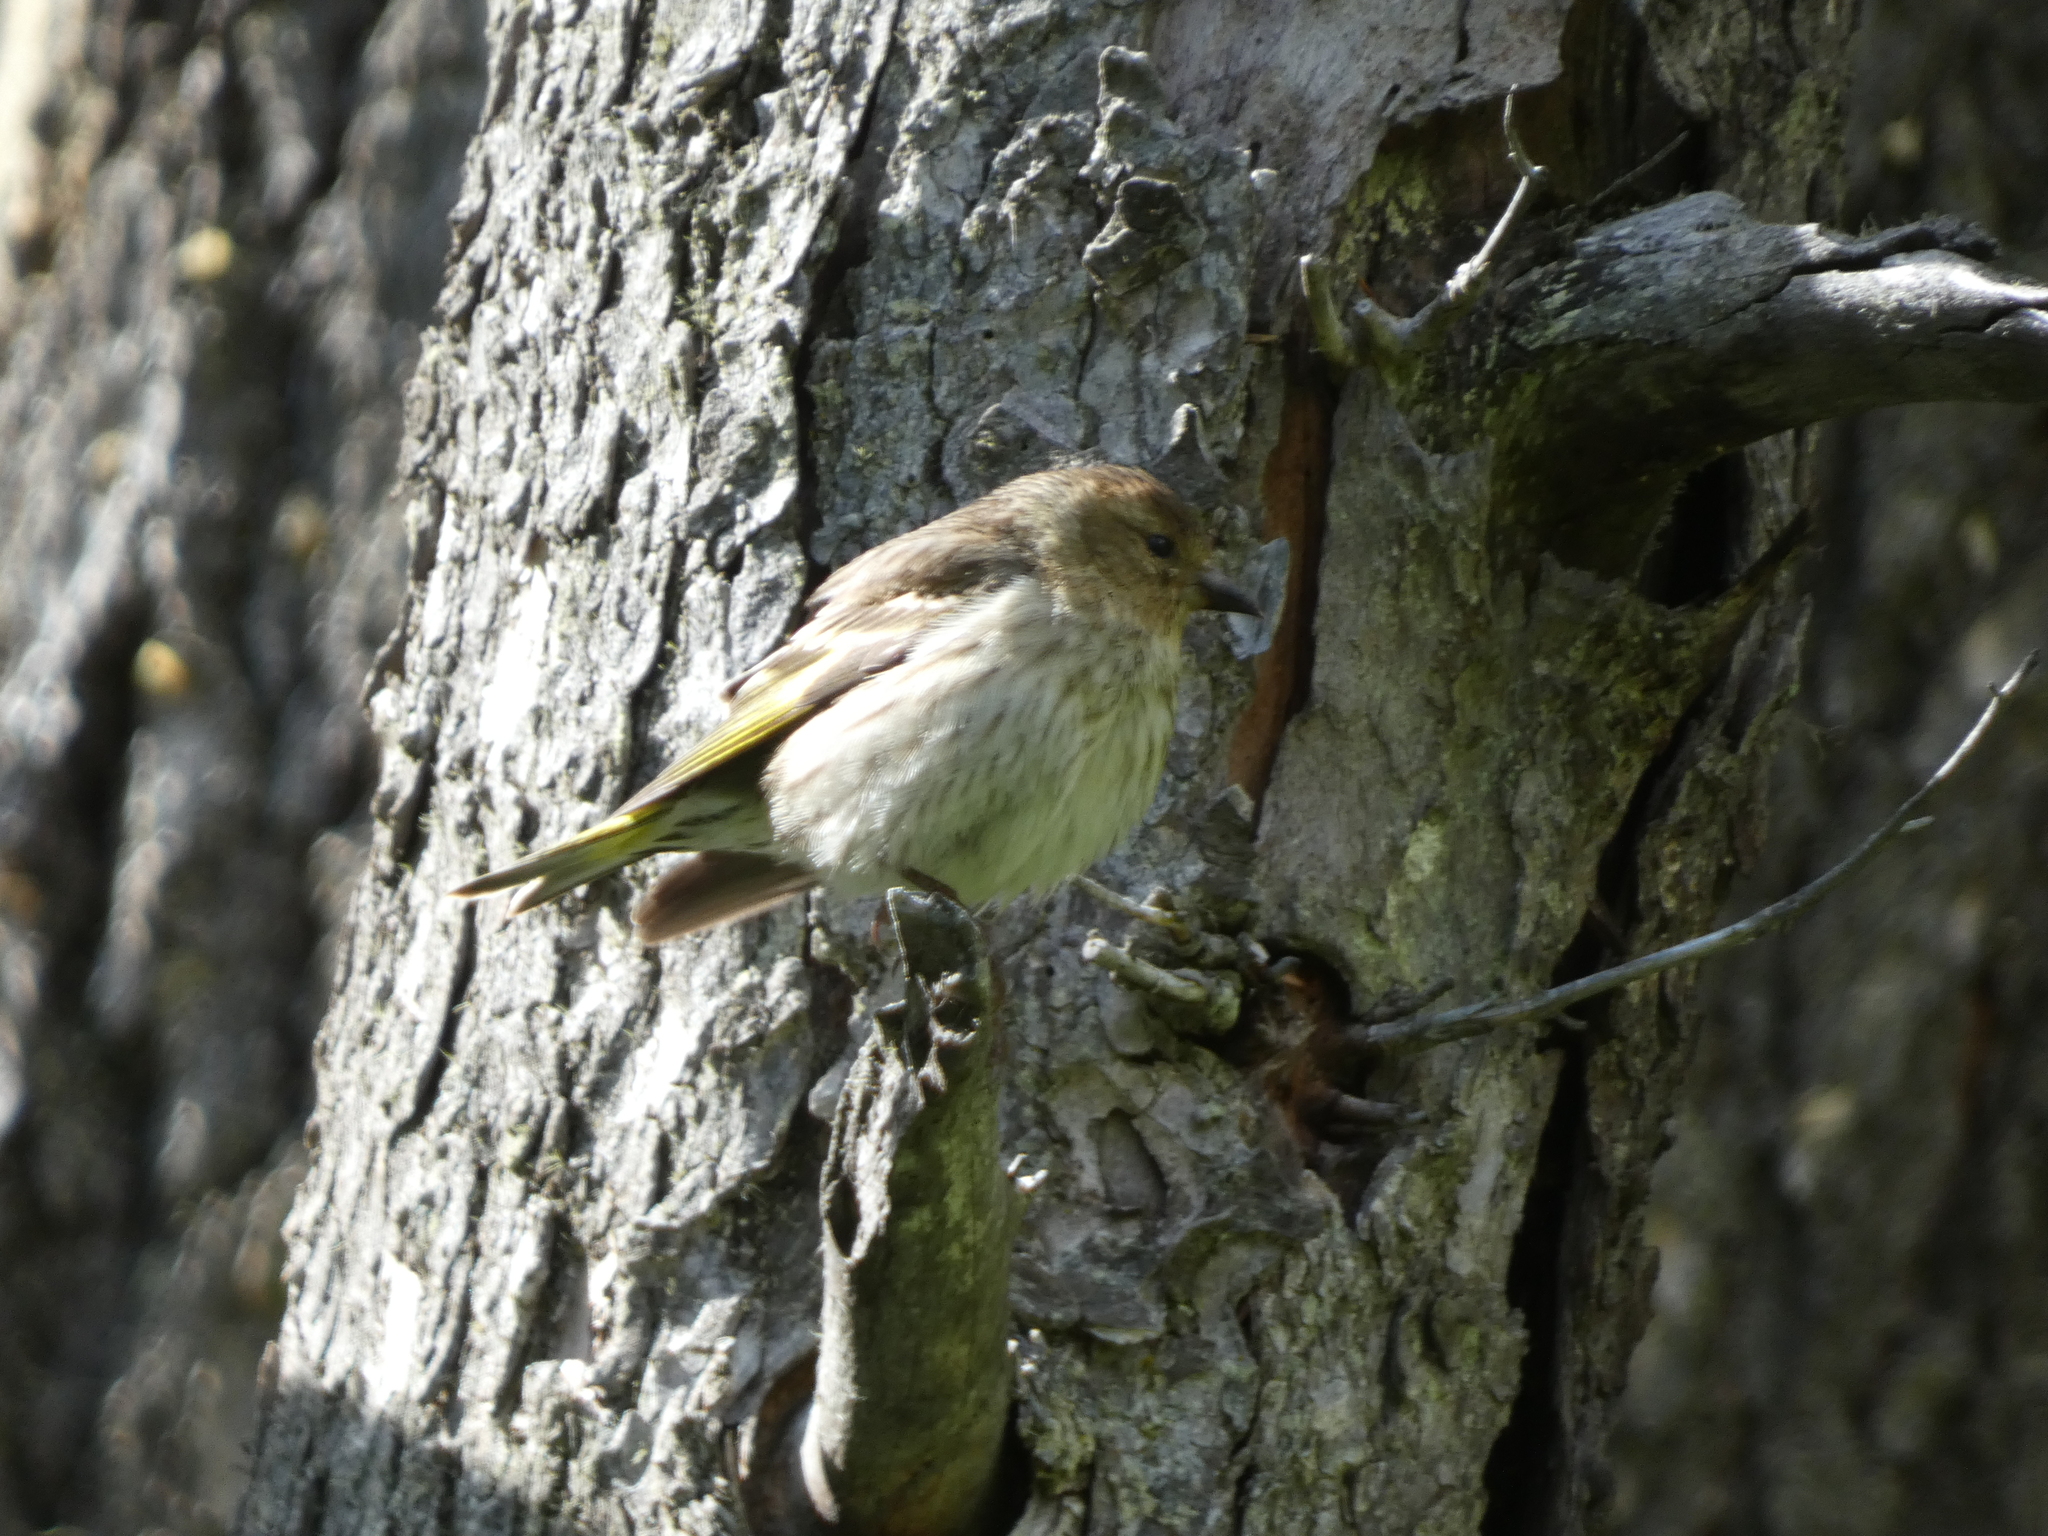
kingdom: Animalia
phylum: Chordata
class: Aves
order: Passeriformes
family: Fringillidae
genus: Spinus
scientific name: Spinus pinus
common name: Pine siskin
